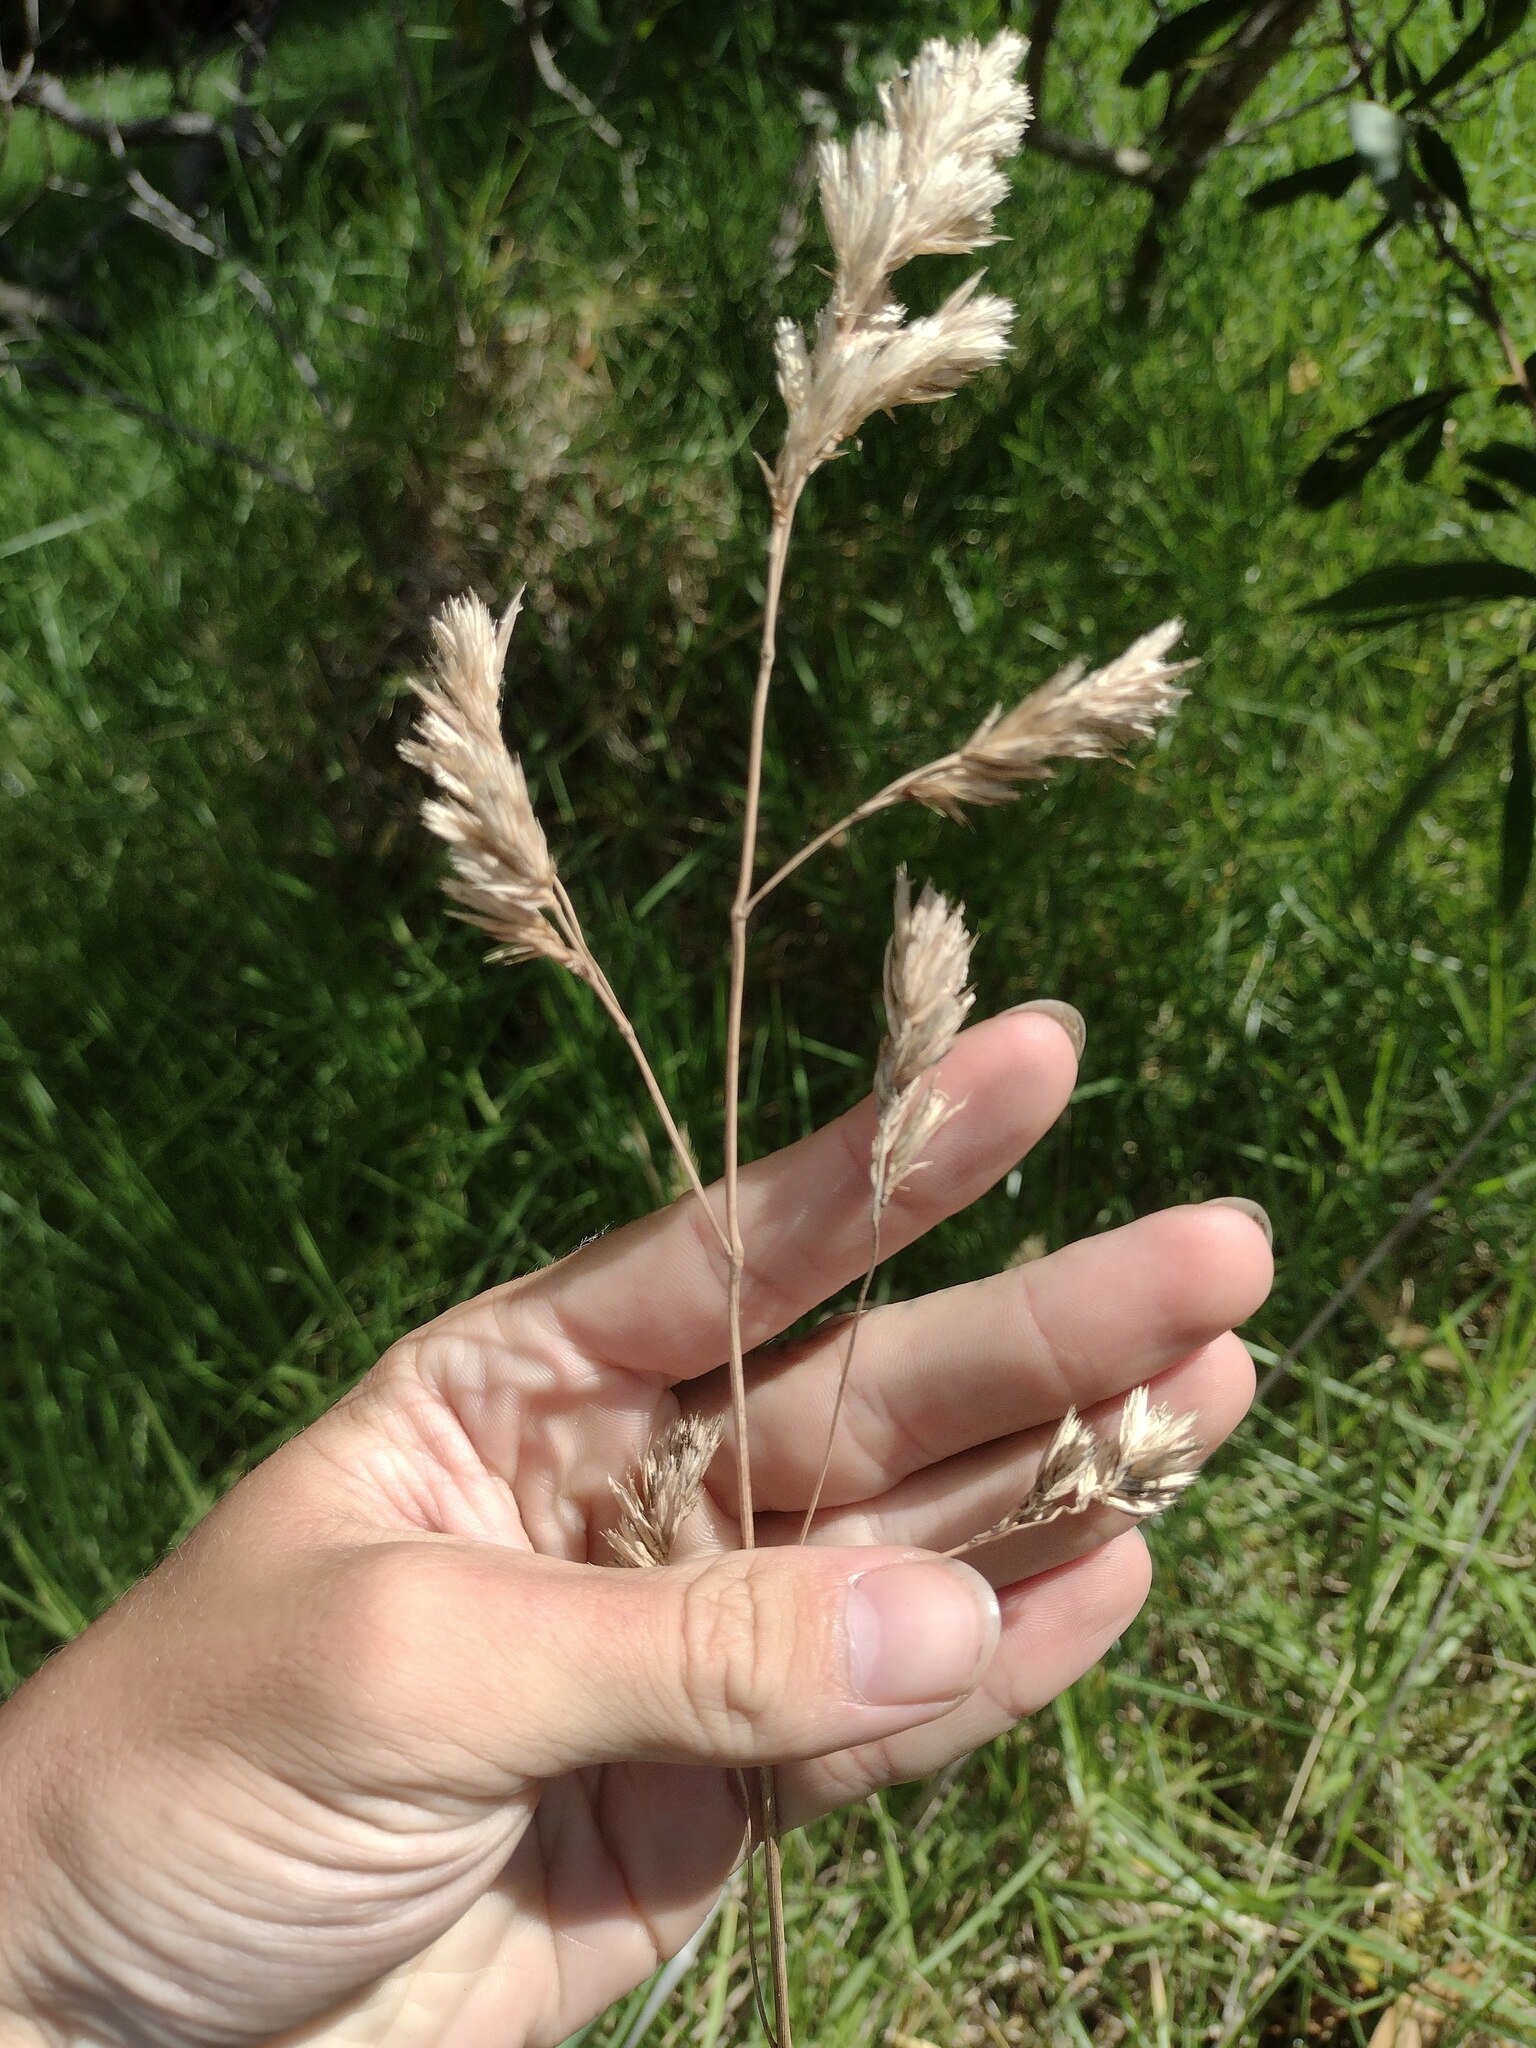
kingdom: Plantae
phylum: Tracheophyta
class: Liliopsida
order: Poales
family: Poaceae
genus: Dactylis
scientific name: Dactylis glomerata
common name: Orchardgrass
